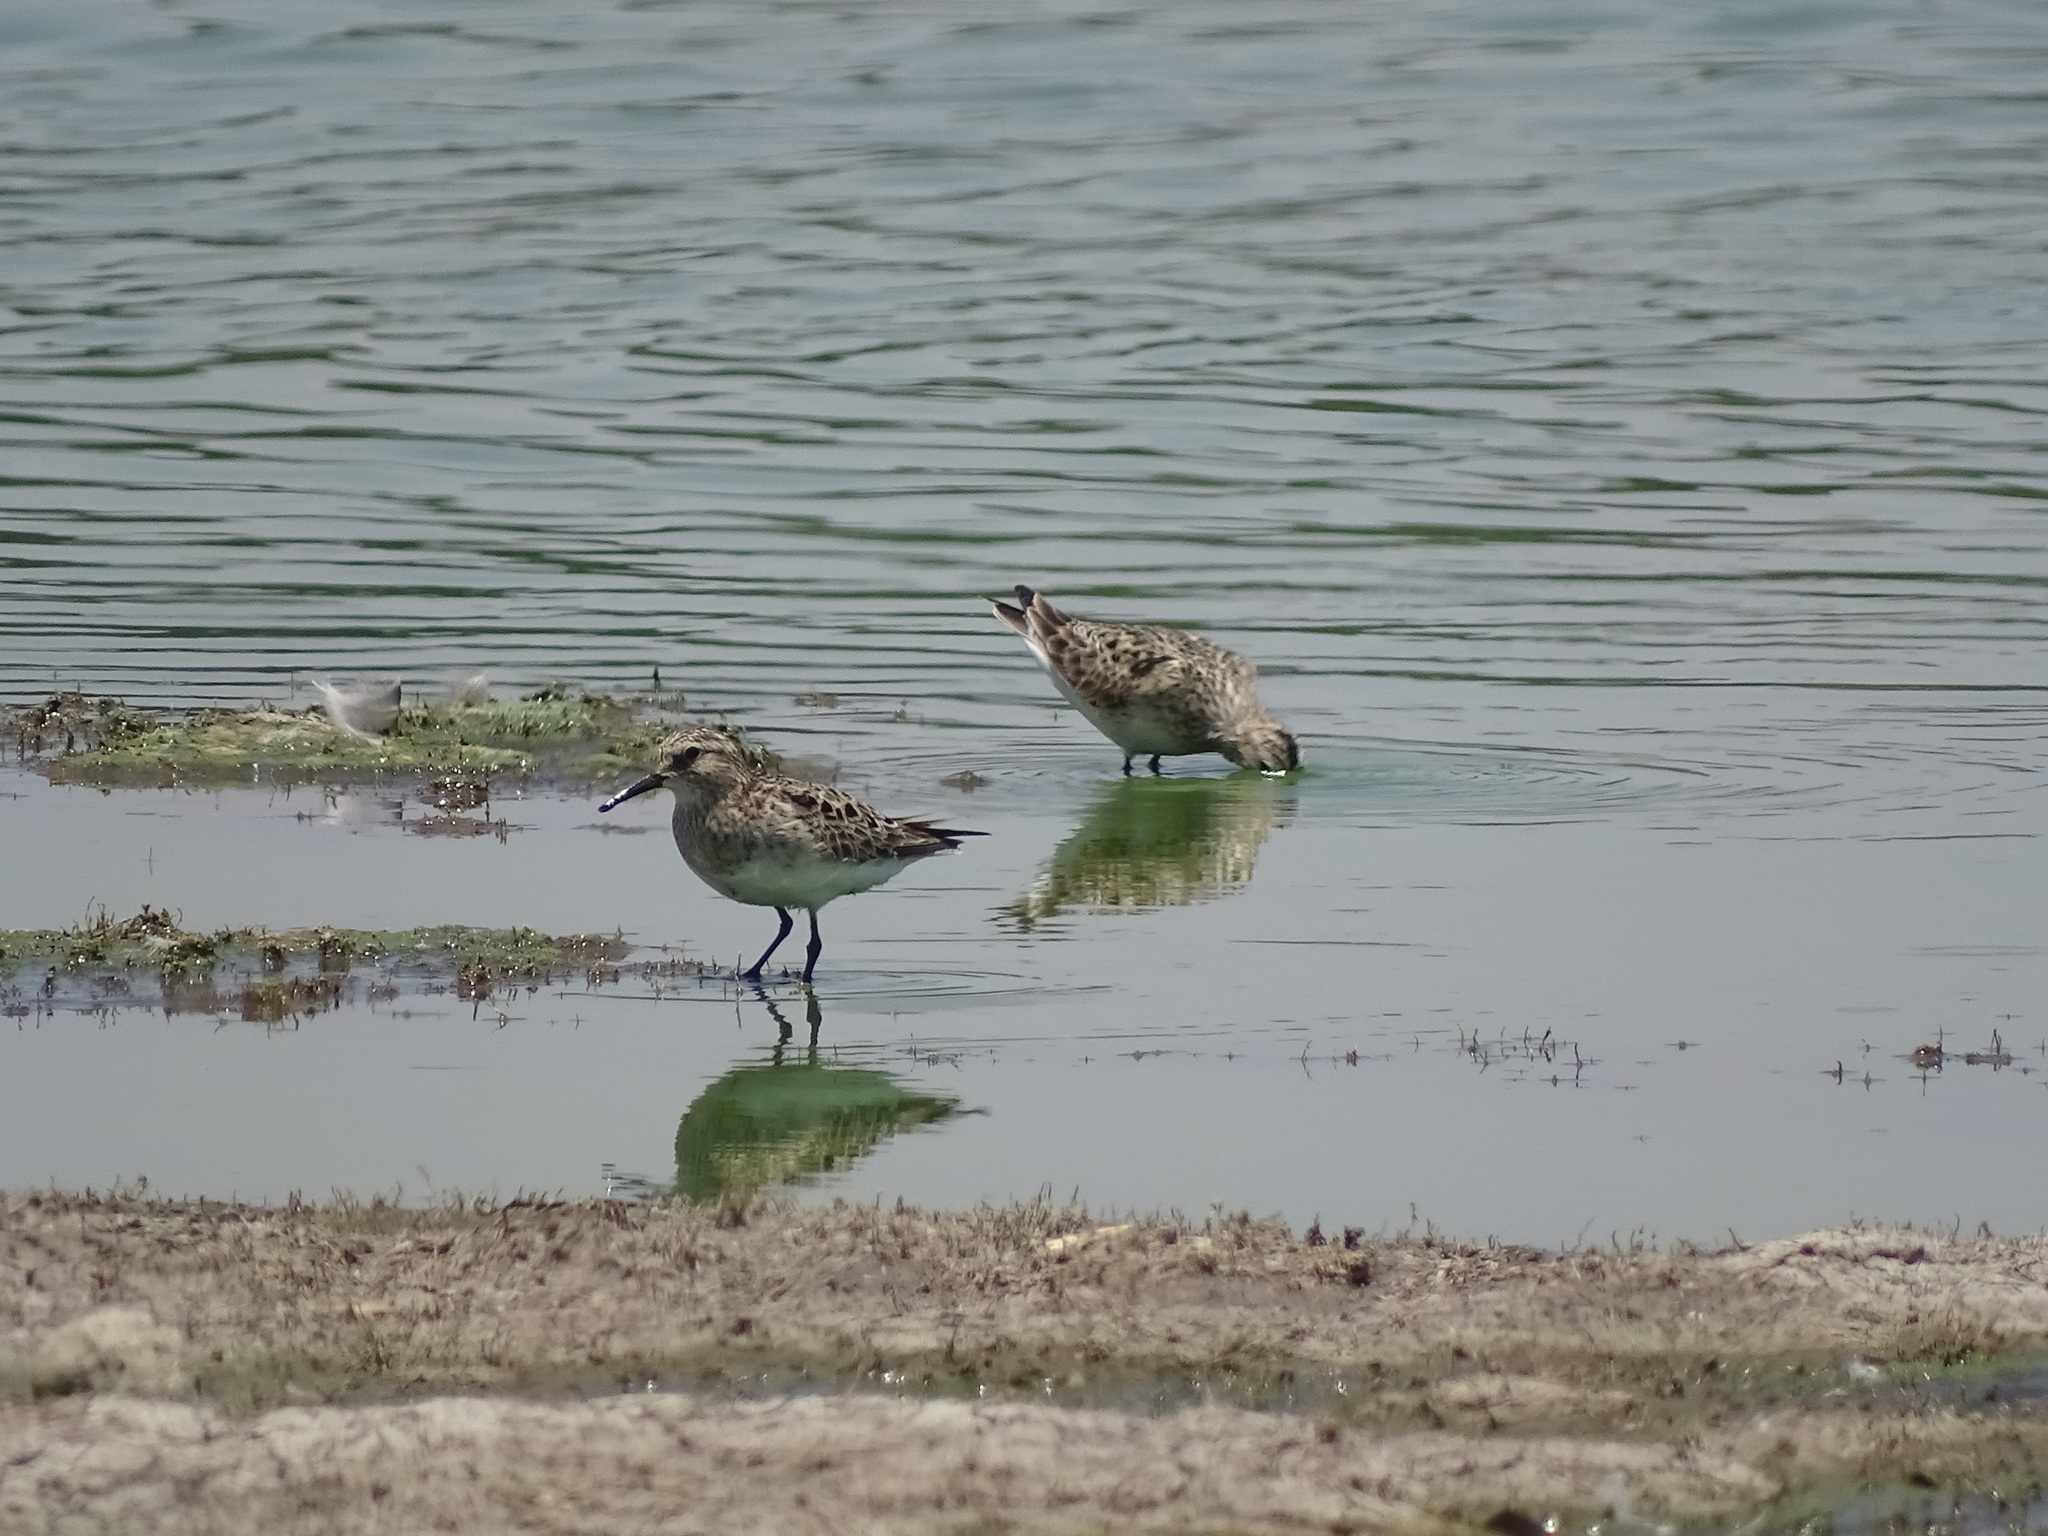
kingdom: Animalia
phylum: Chordata
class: Aves
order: Charadriiformes
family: Scolopacidae
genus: Calidris
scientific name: Calidris bairdii
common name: Baird's sandpiper
